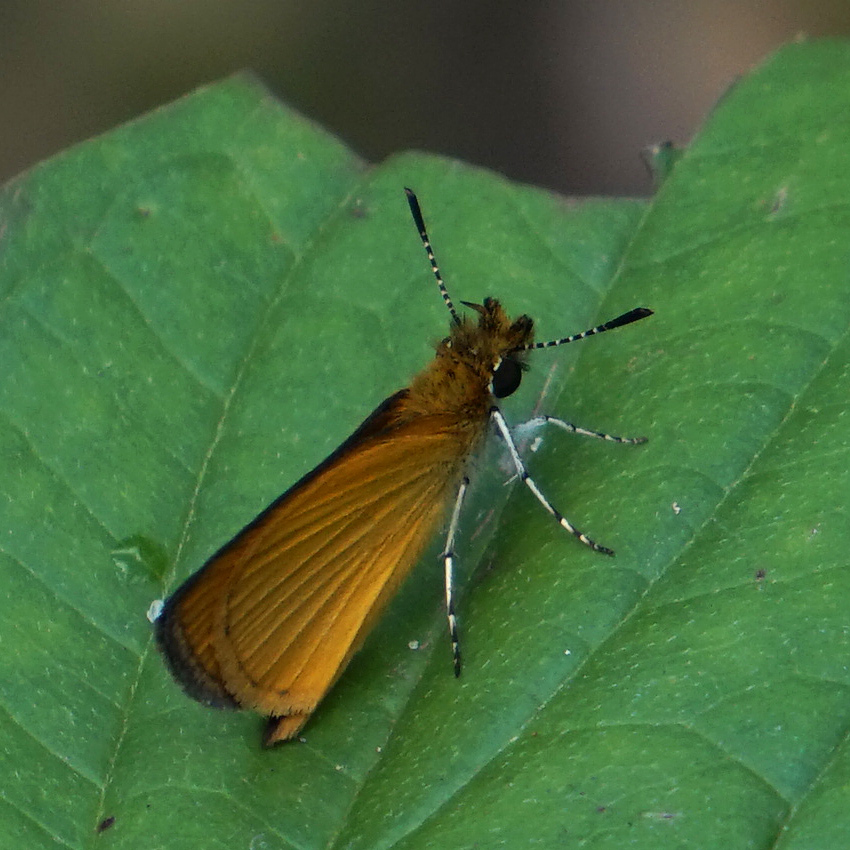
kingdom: Animalia
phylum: Arthropoda
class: Insecta
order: Lepidoptera
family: Hesperiidae
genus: Ancyloxypha
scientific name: Ancyloxypha numitor
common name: Least skipper
